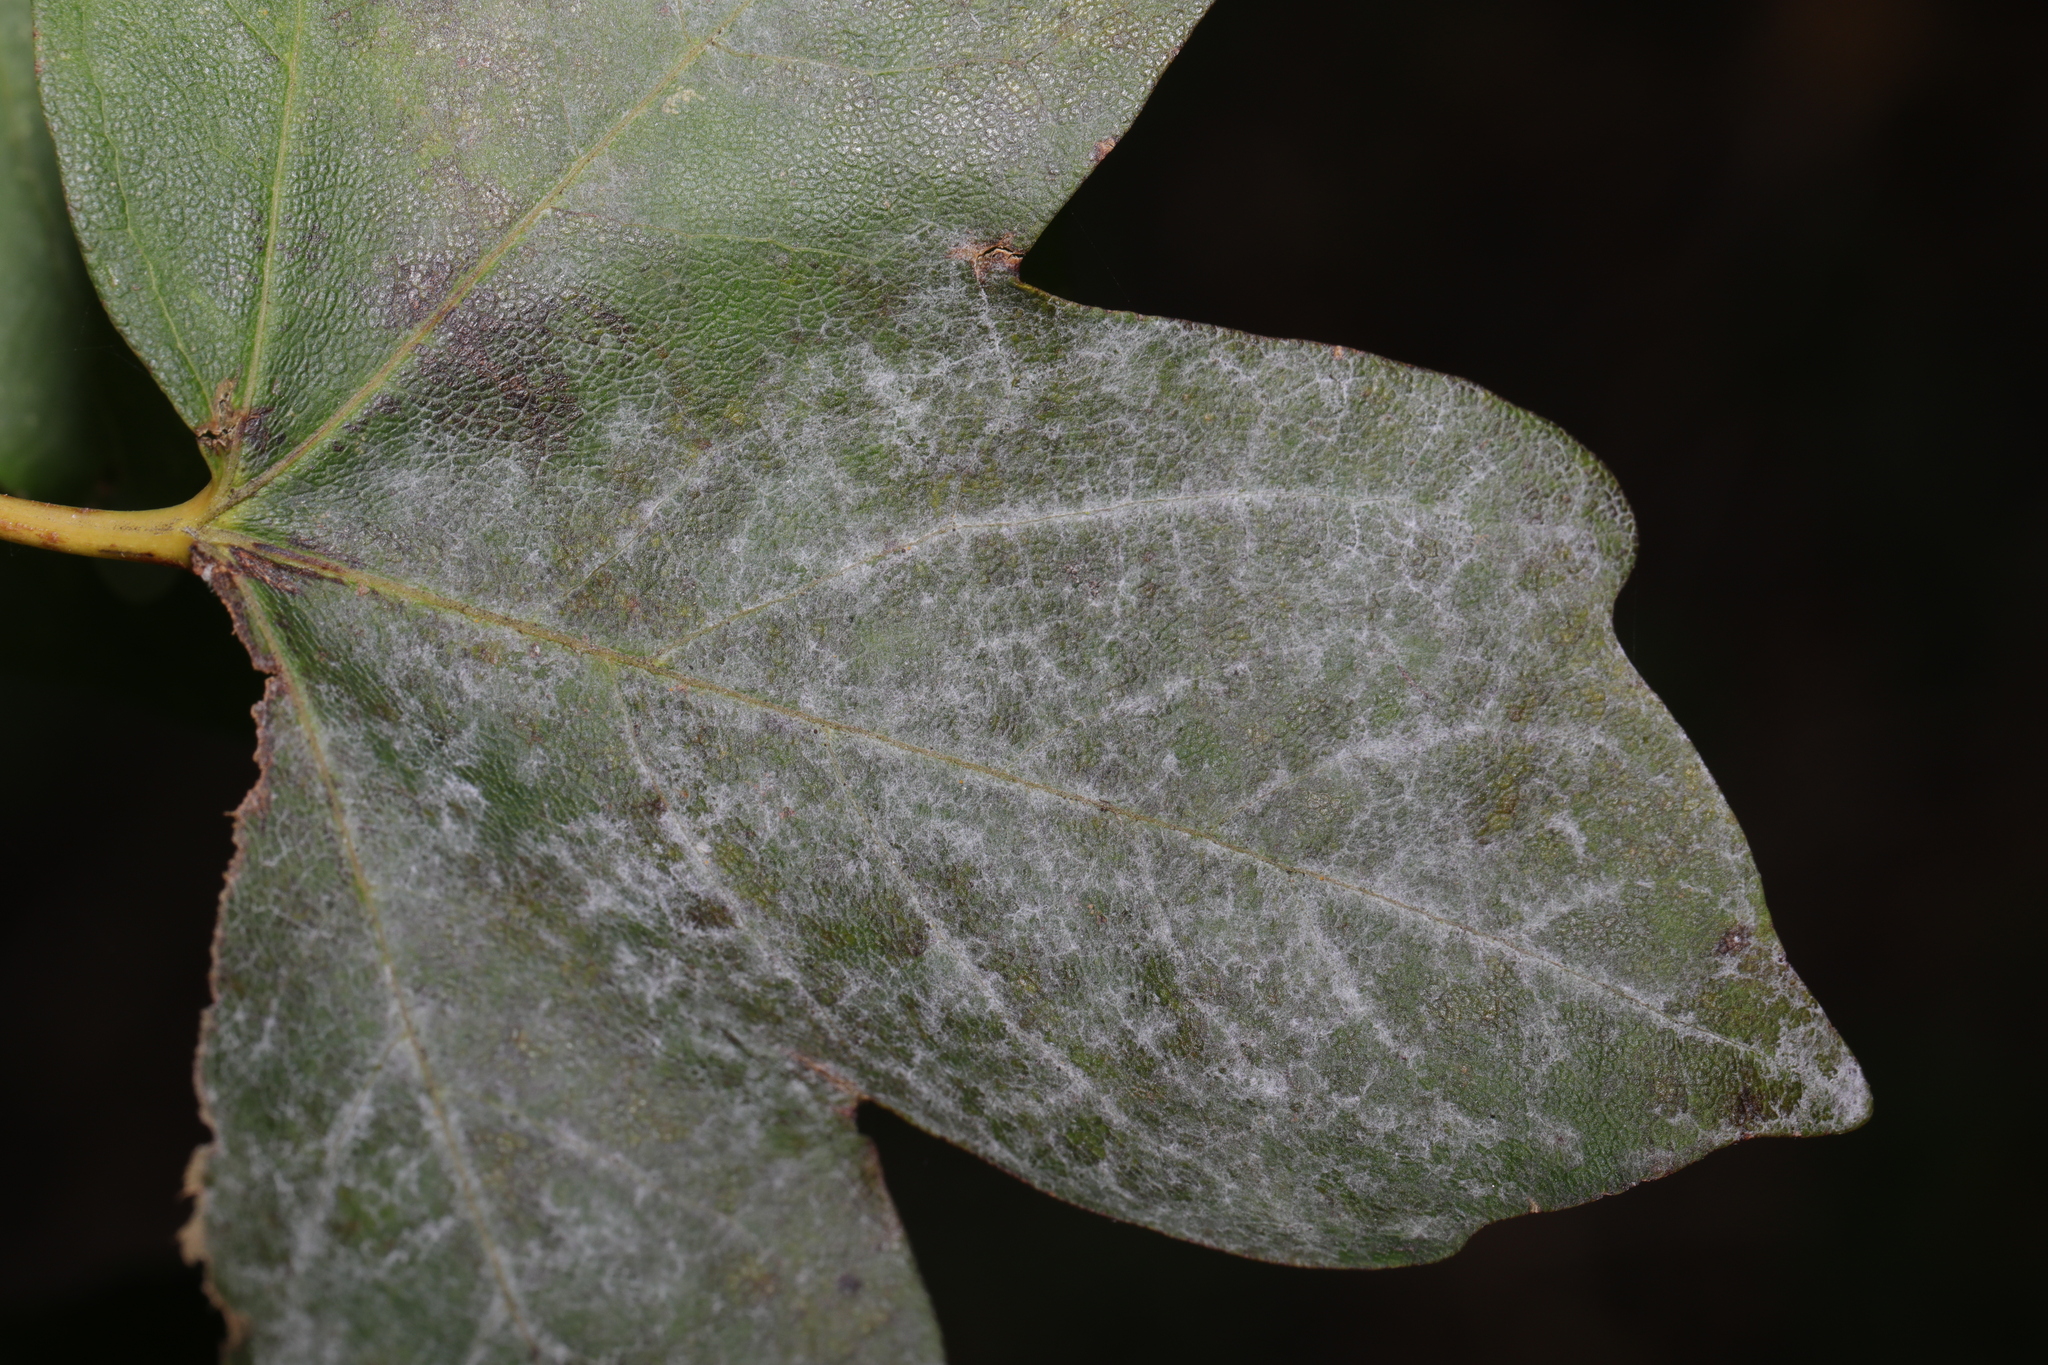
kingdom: Fungi
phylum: Ascomycota
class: Leotiomycetes
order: Helotiales
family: Erysiphaceae
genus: Sawadaea
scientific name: Sawadaea bicornis
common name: Maple mildew
